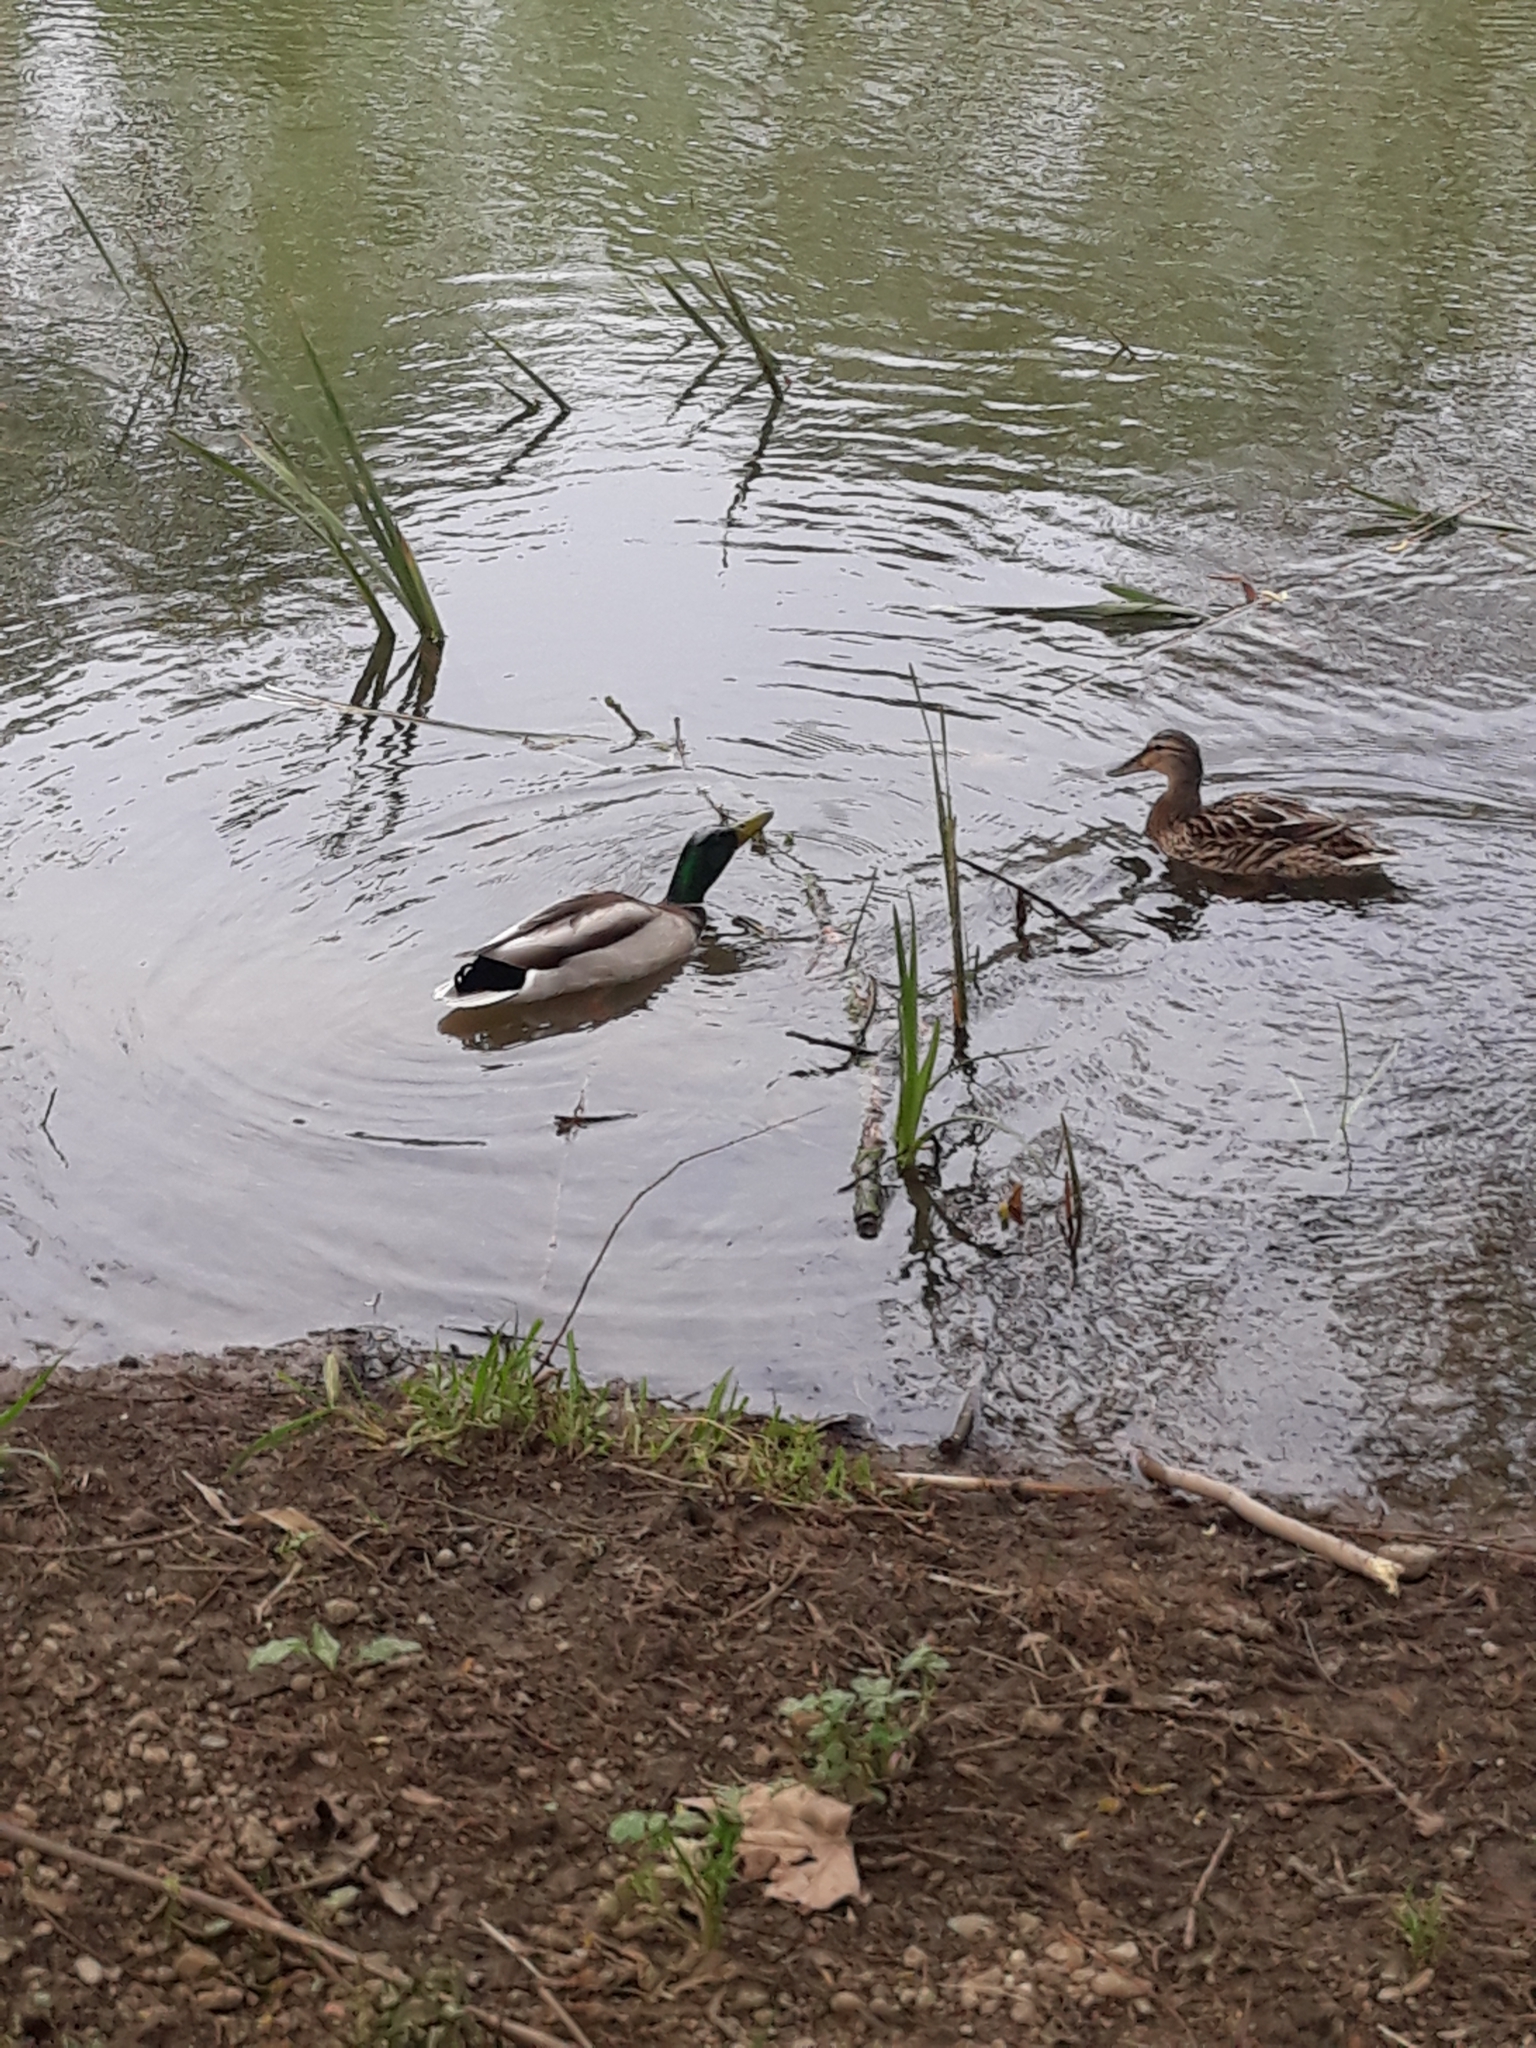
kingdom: Animalia
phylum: Chordata
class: Aves
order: Anseriformes
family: Anatidae
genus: Anas
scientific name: Anas platyrhynchos
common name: Mallard
